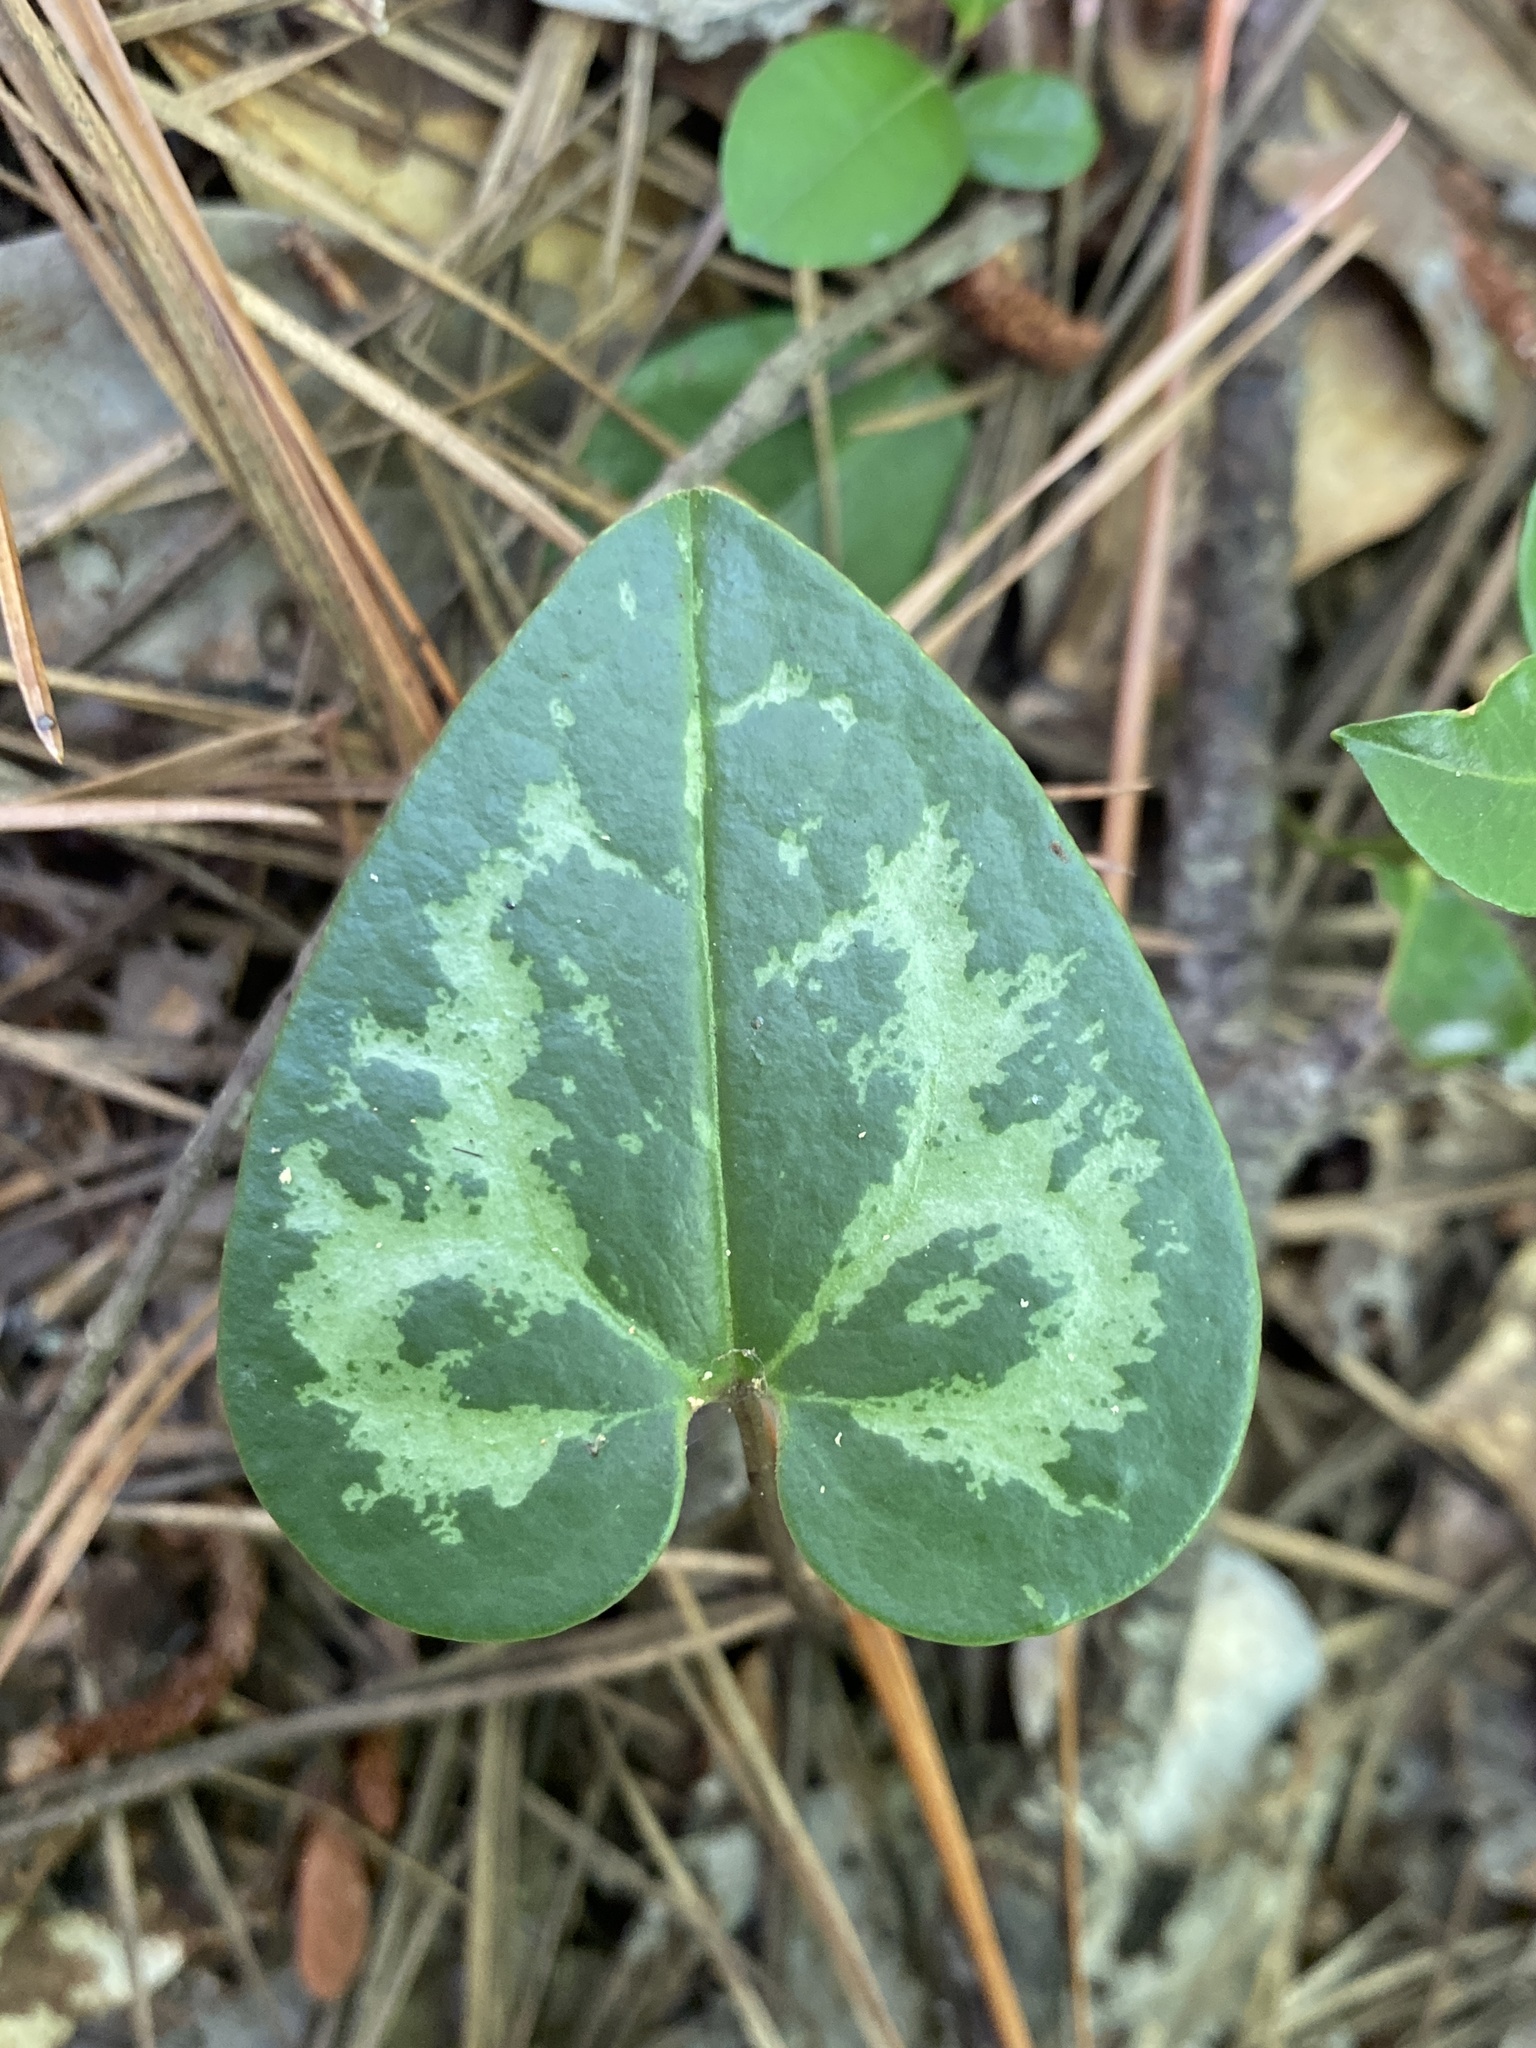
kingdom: Plantae
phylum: Tracheophyta
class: Magnoliopsida
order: Piperales
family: Aristolochiaceae
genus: Hexastylis
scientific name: Hexastylis sorriei
